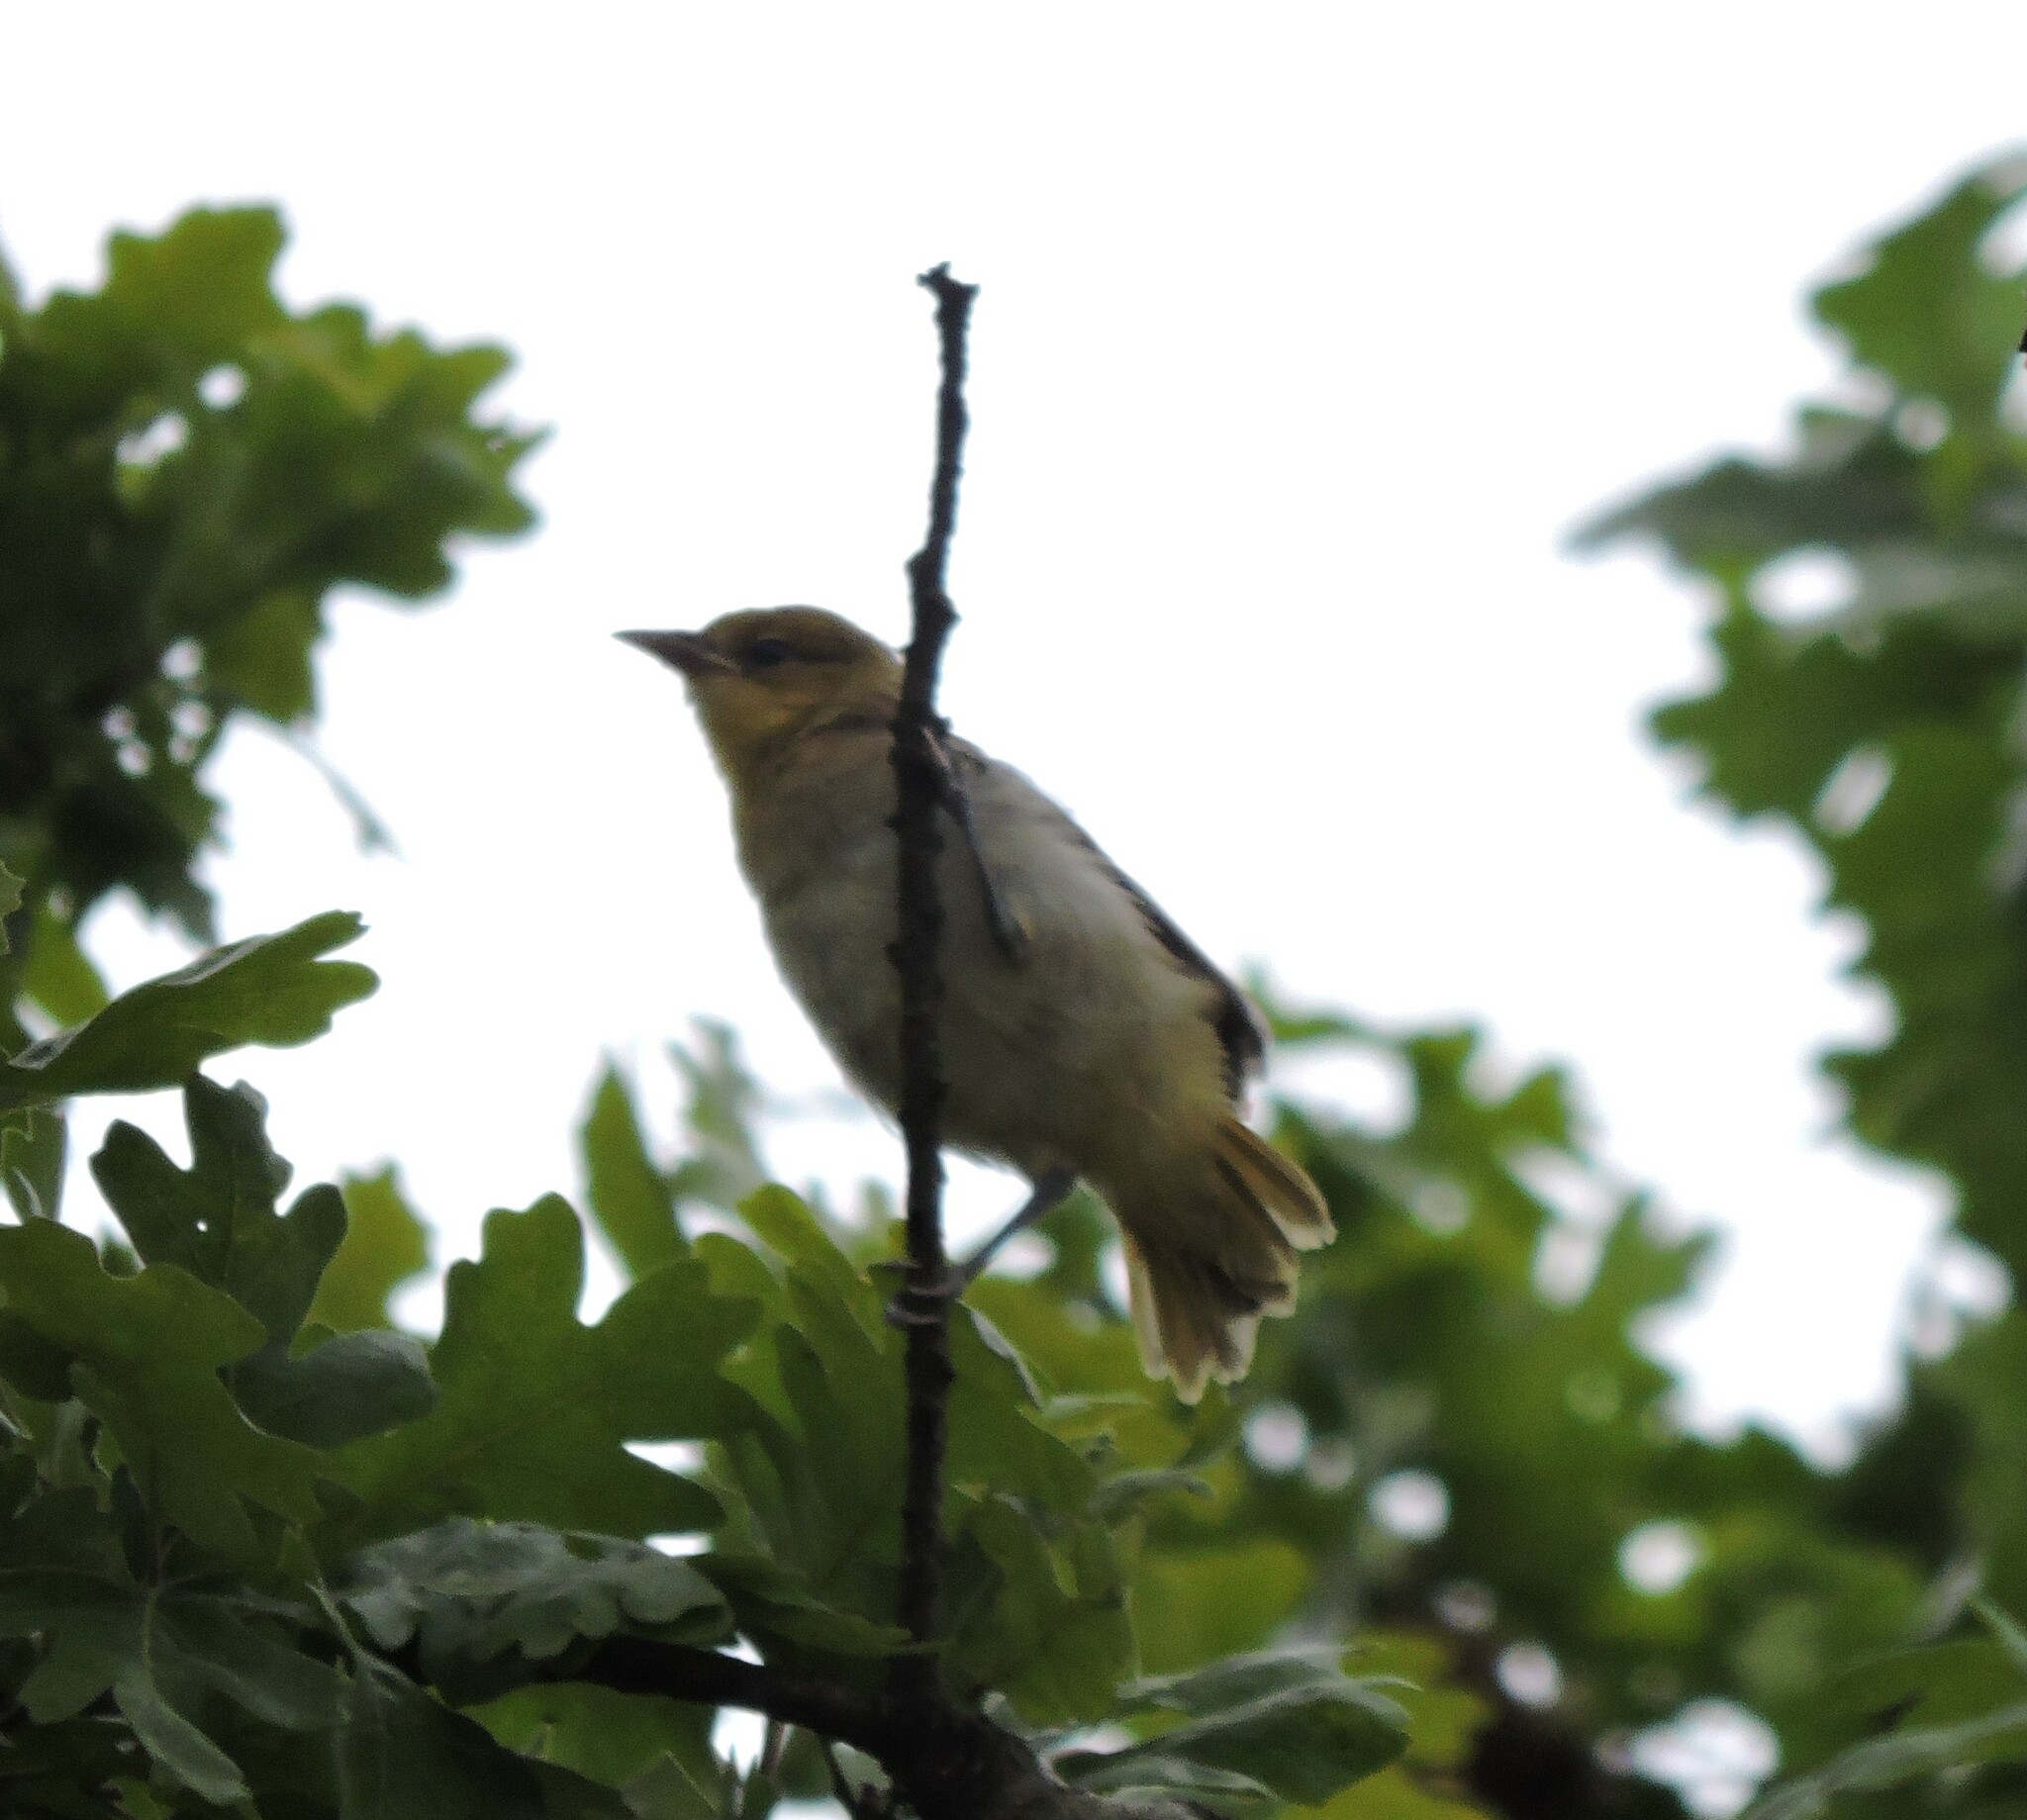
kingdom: Animalia
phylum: Chordata
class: Aves
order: Passeriformes
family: Icteridae
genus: Icterus
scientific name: Icterus bullockii
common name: Bullock's oriole
